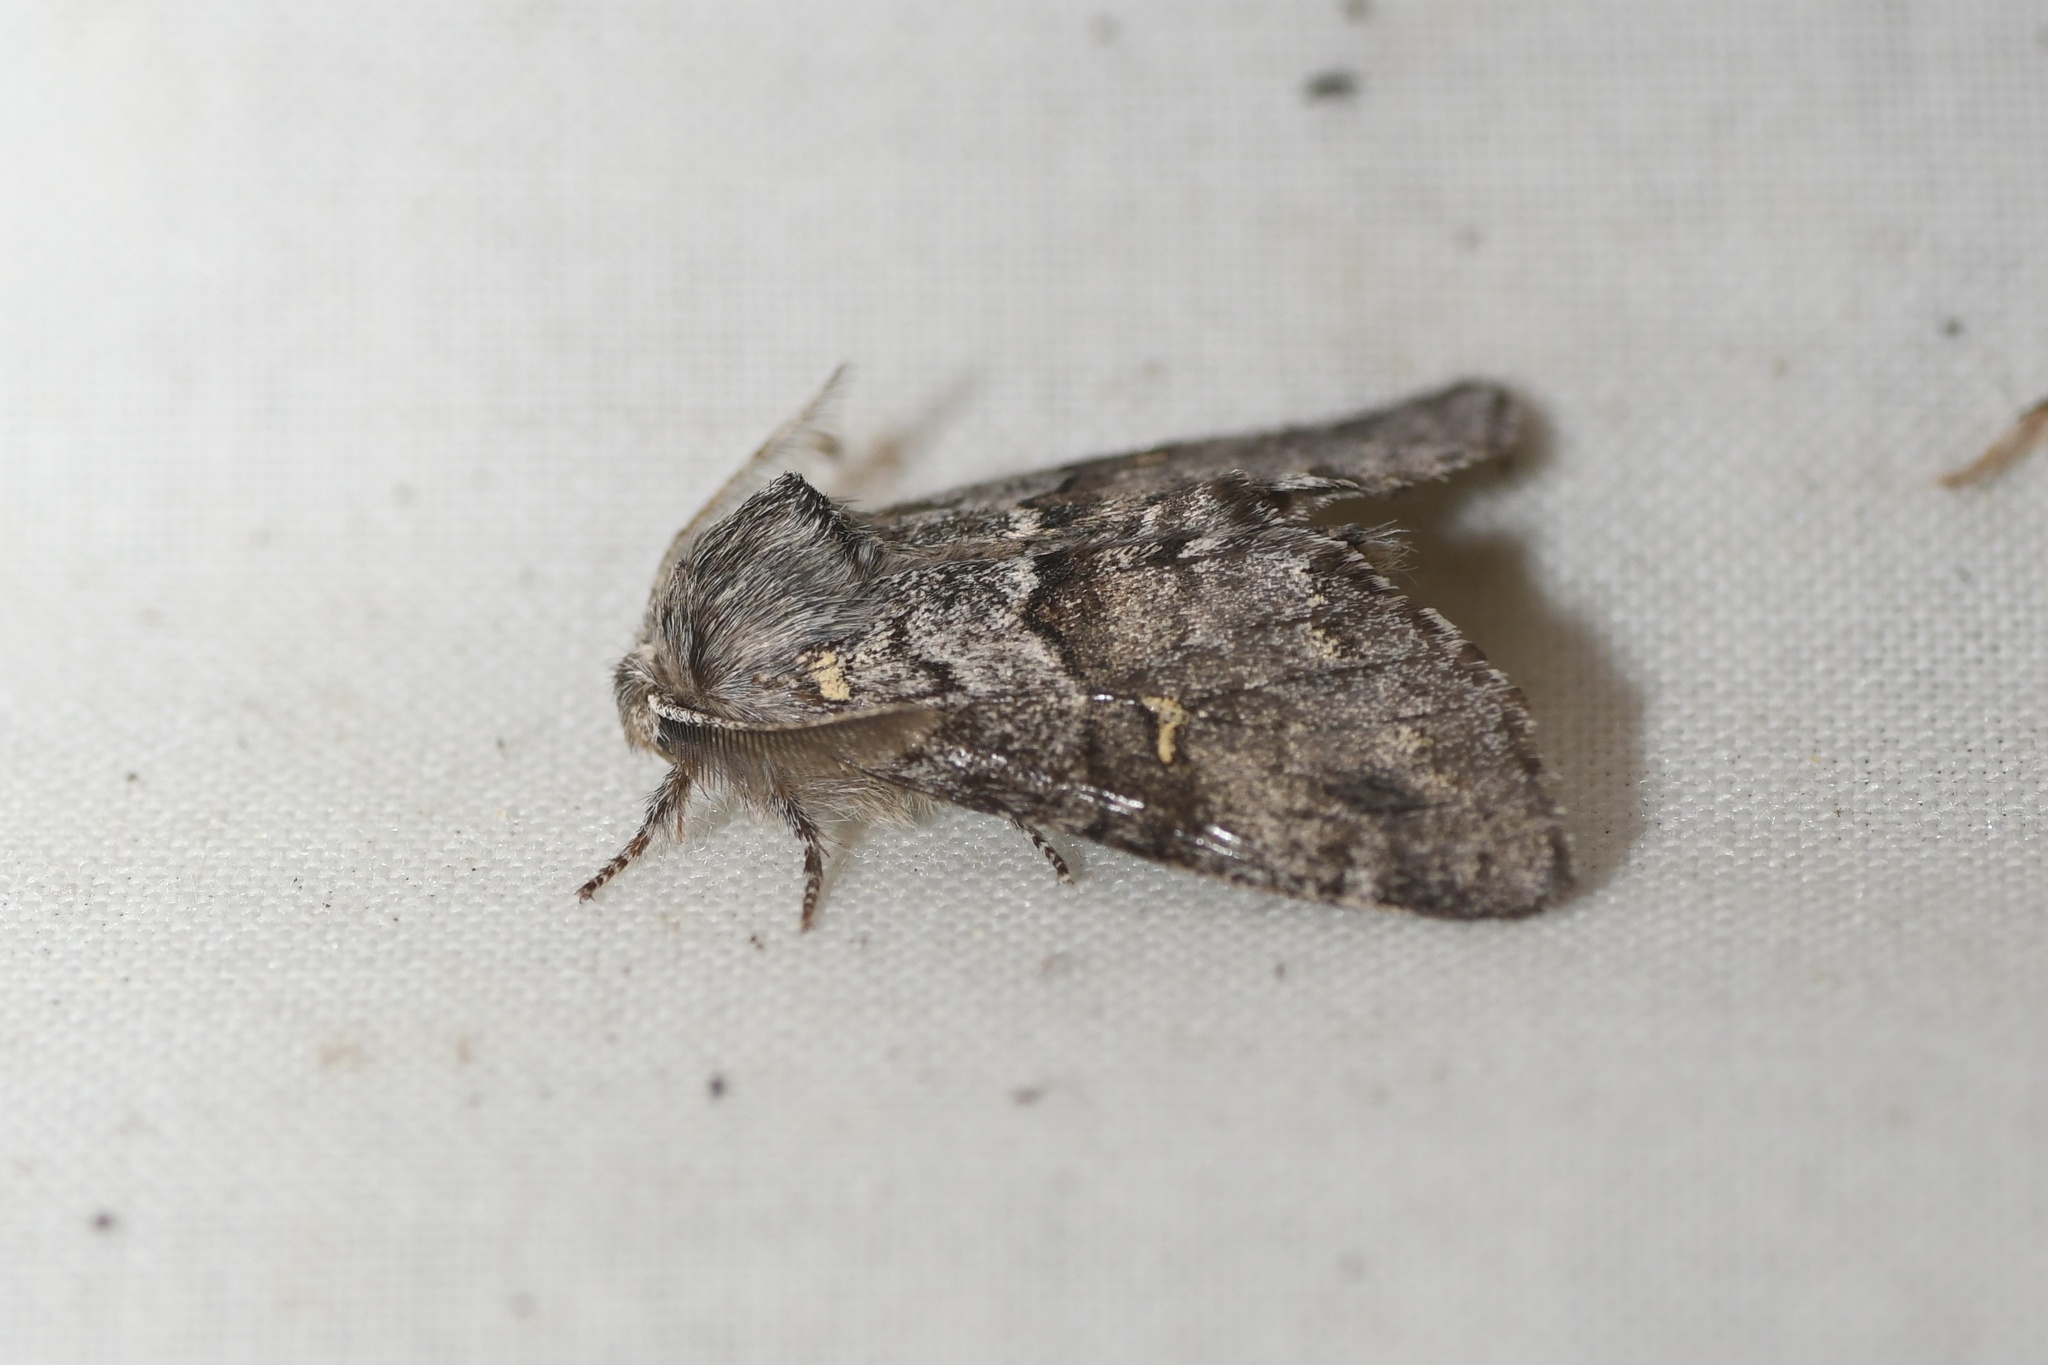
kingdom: Animalia
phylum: Arthropoda
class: Insecta
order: Lepidoptera
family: Notodontidae
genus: Gluphisia
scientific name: Gluphisia avimacula
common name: Four-spotted gluphisia moth
